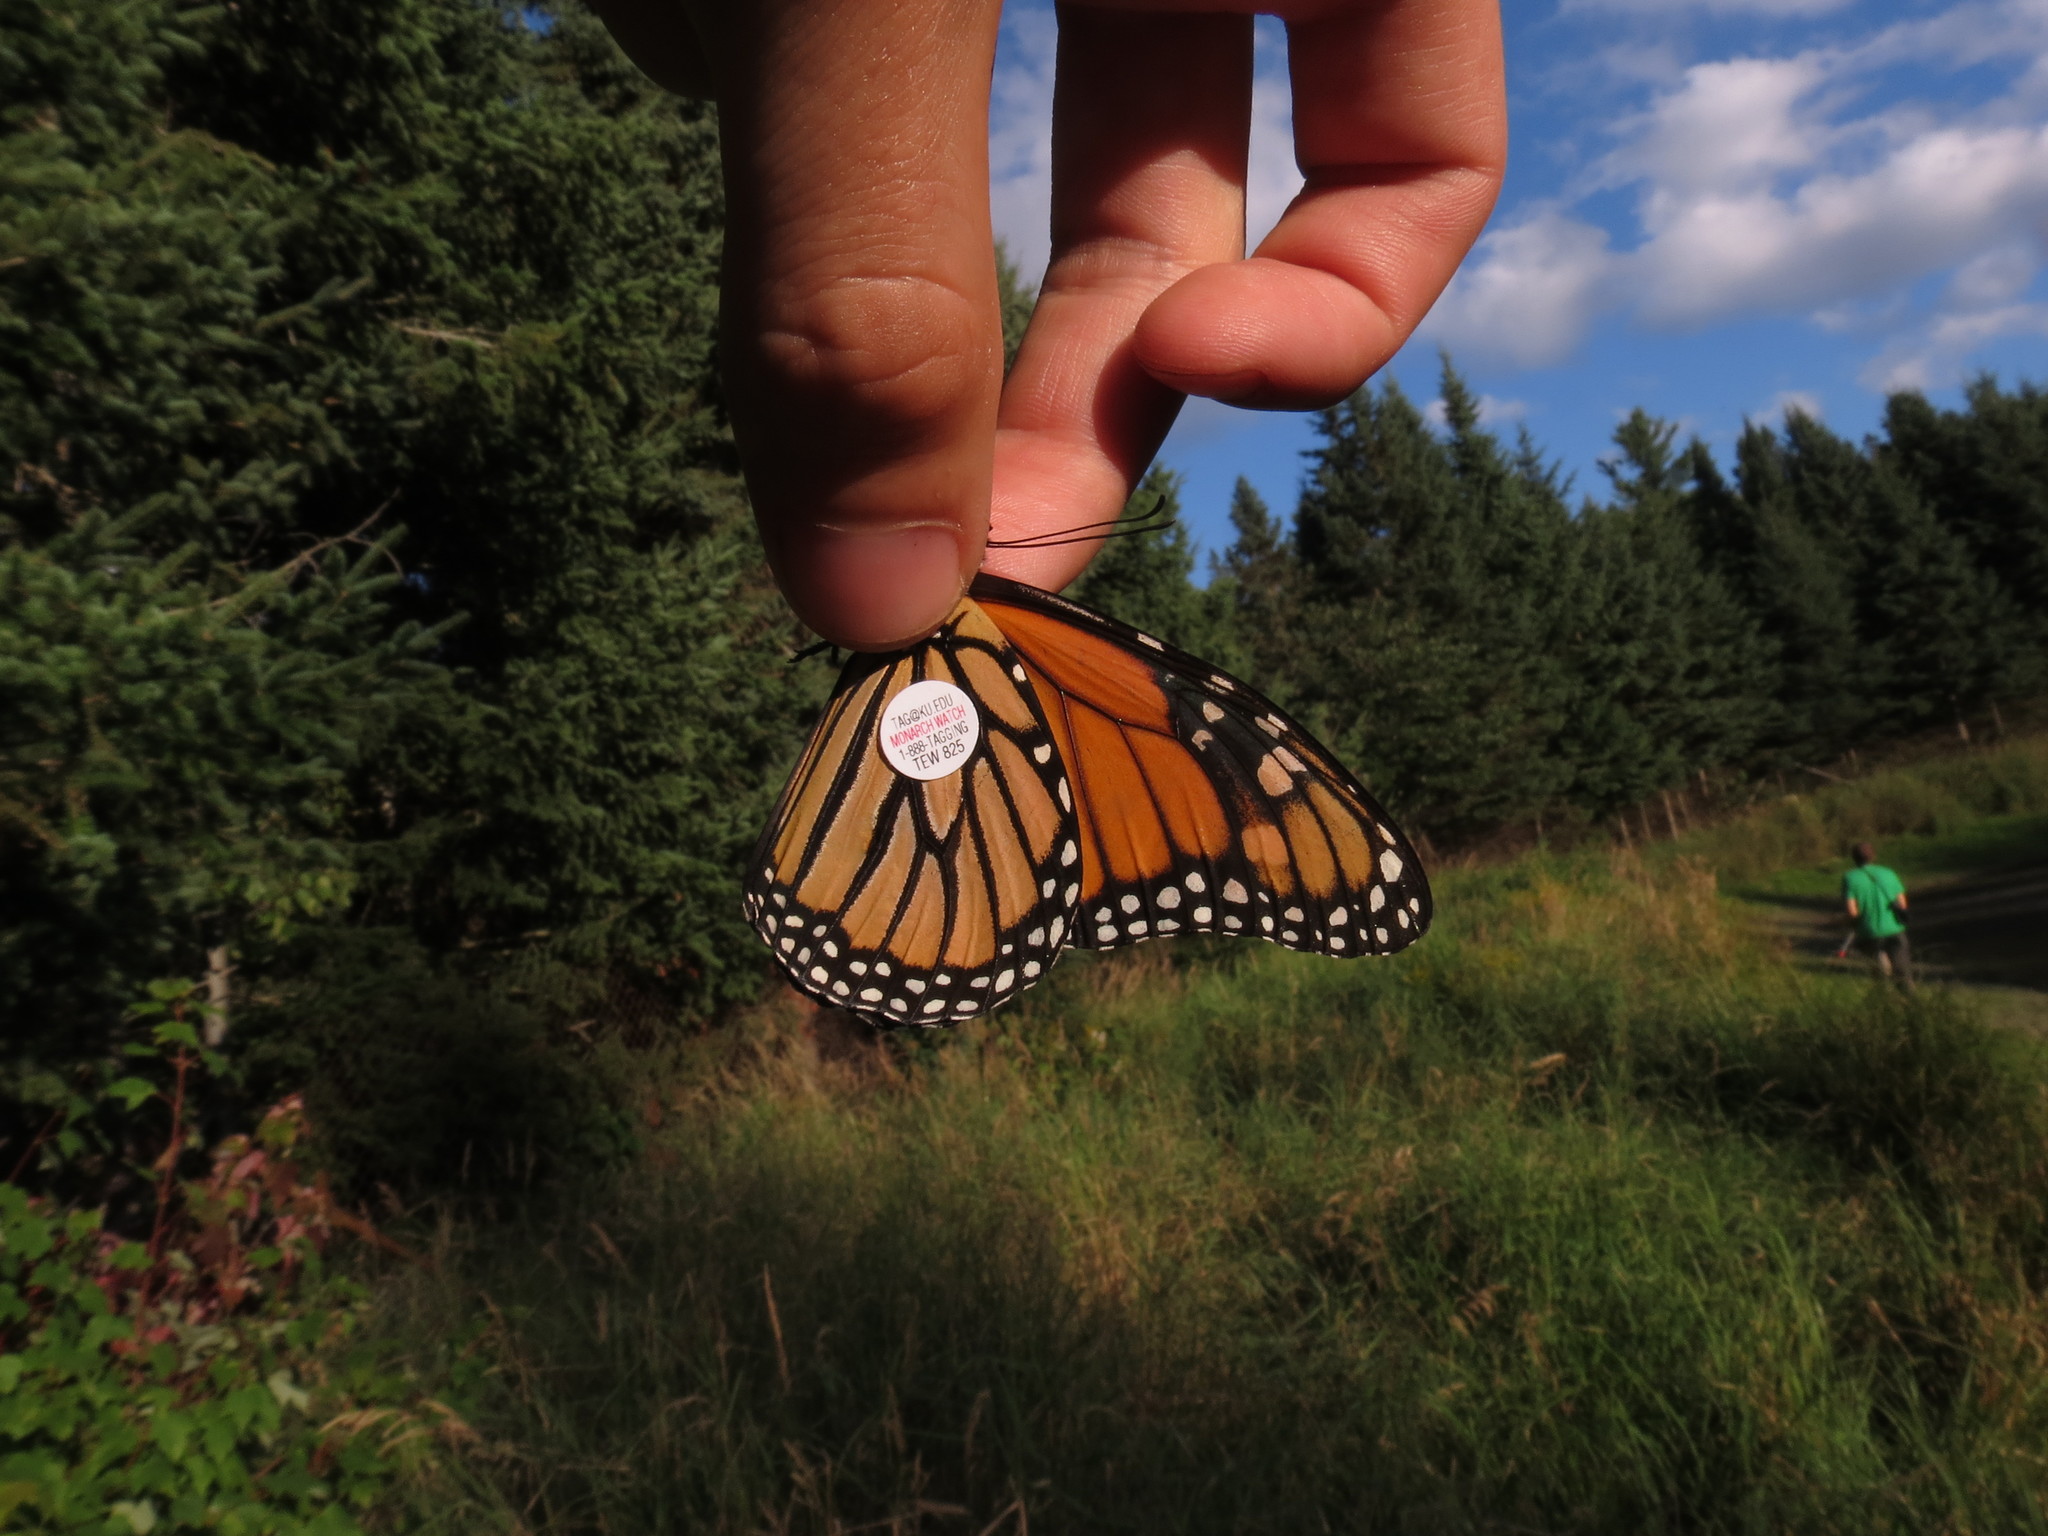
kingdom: Animalia
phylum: Arthropoda
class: Insecta
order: Lepidoptera
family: Nymphalidae
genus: Danaus
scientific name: Danaus plexippus
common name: Monarch
